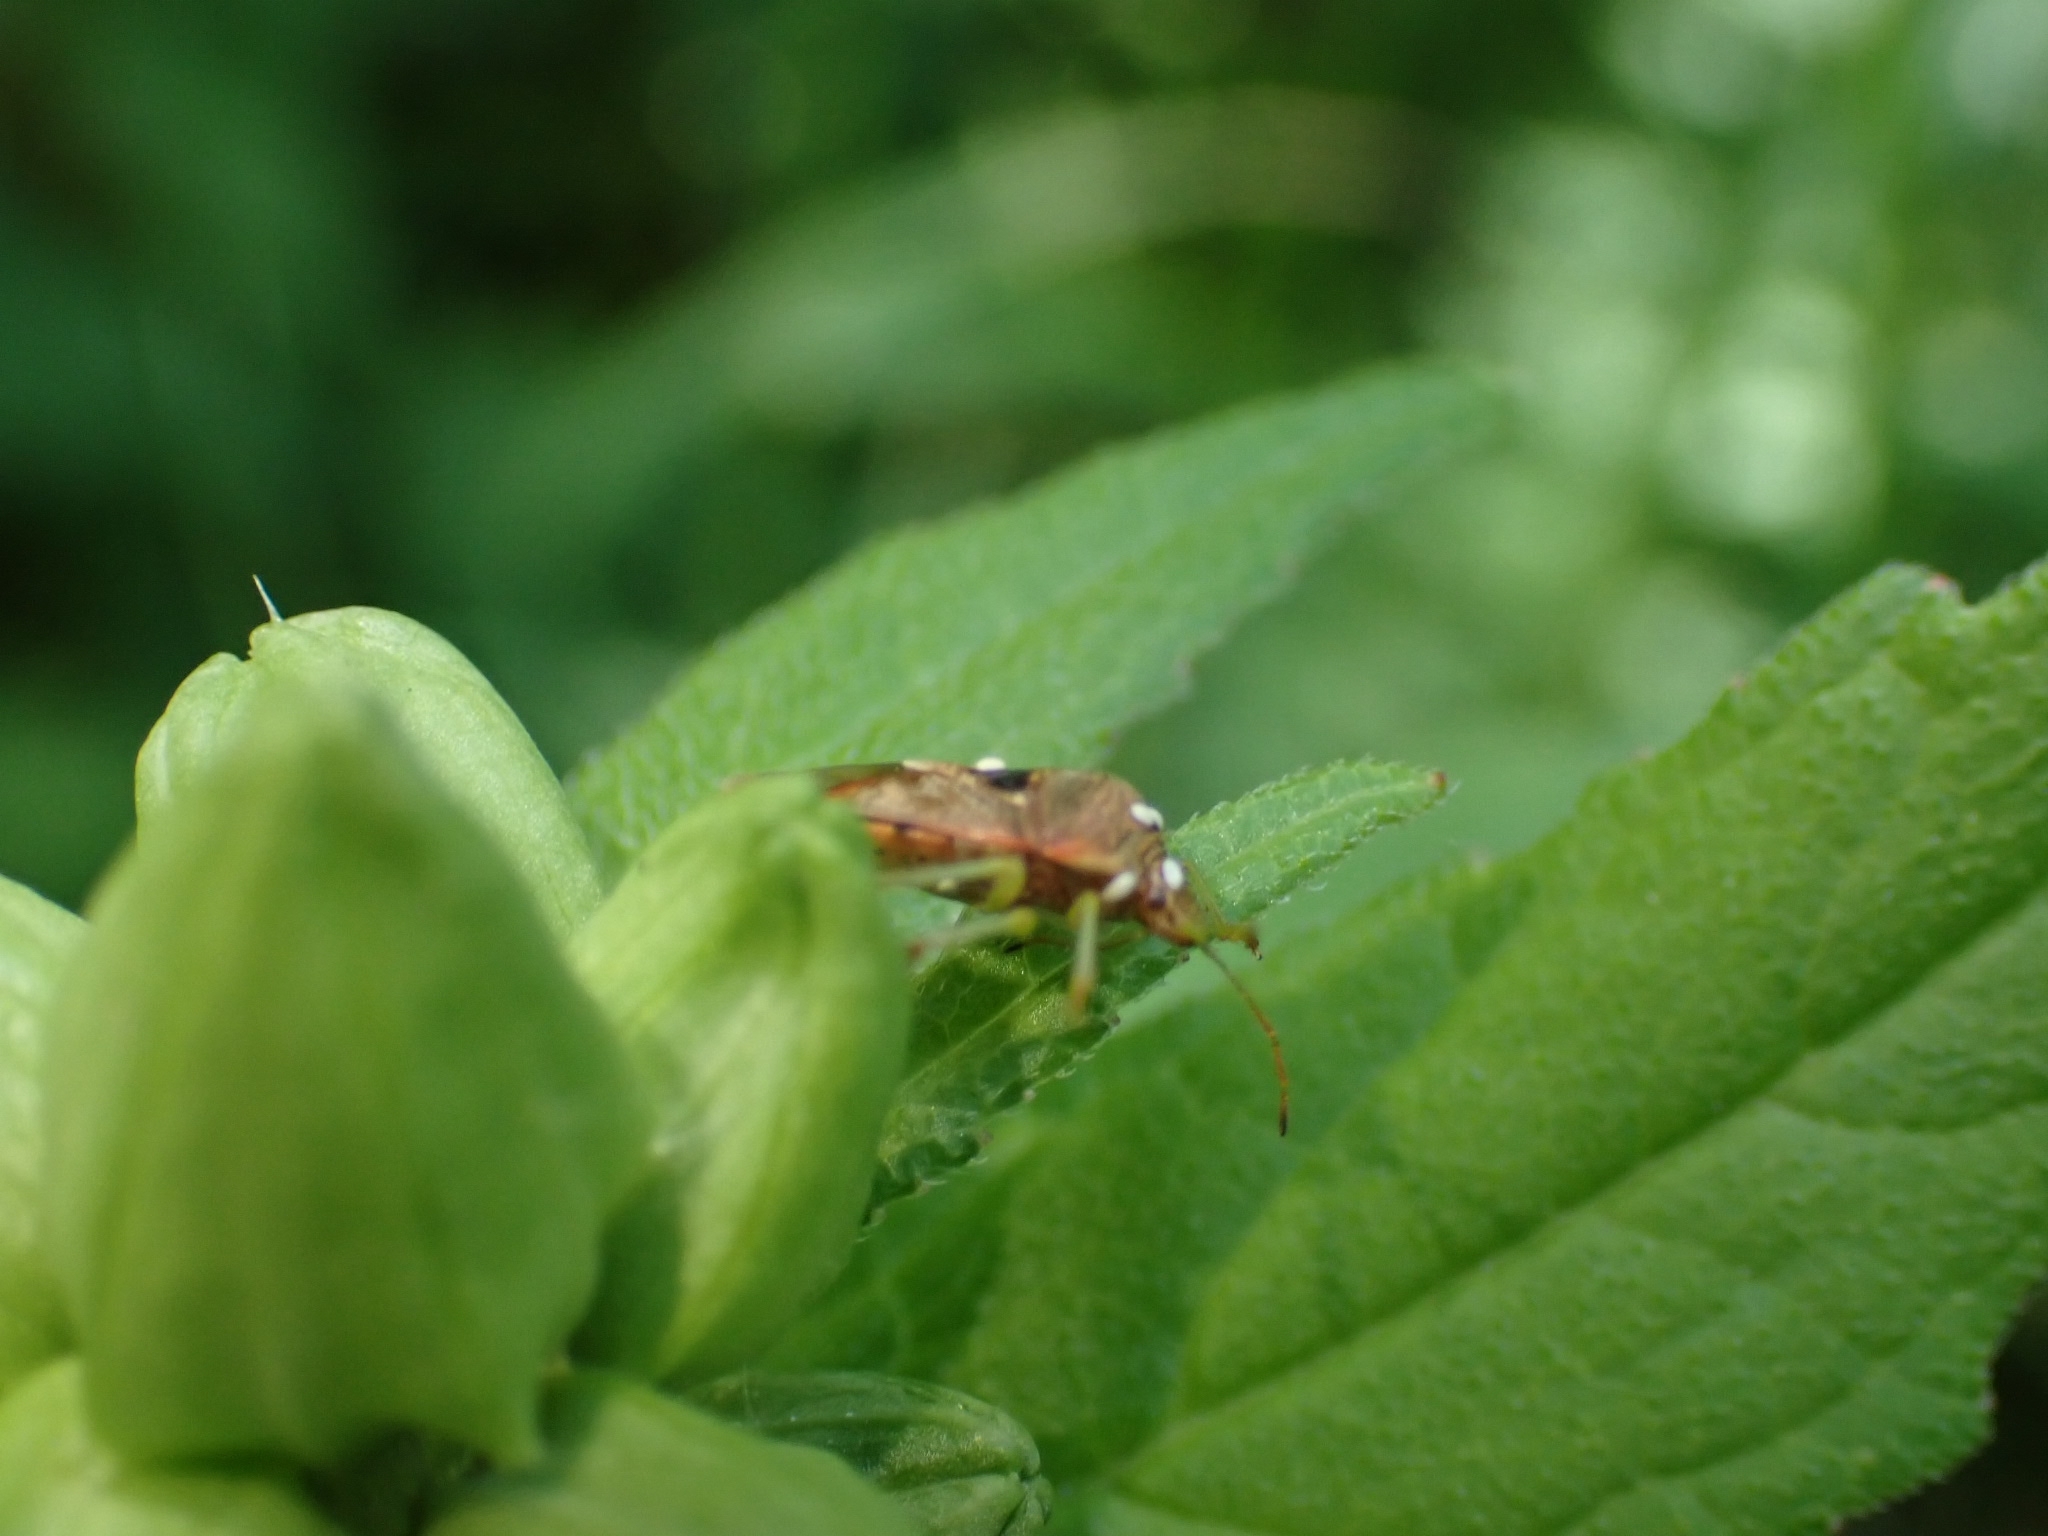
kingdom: Animalia
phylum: Arthropoda
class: Insecta
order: Hemiptera
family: Acanthosomatidae
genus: Elasmucha
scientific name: Elasmucha grisea
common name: Parent bug
